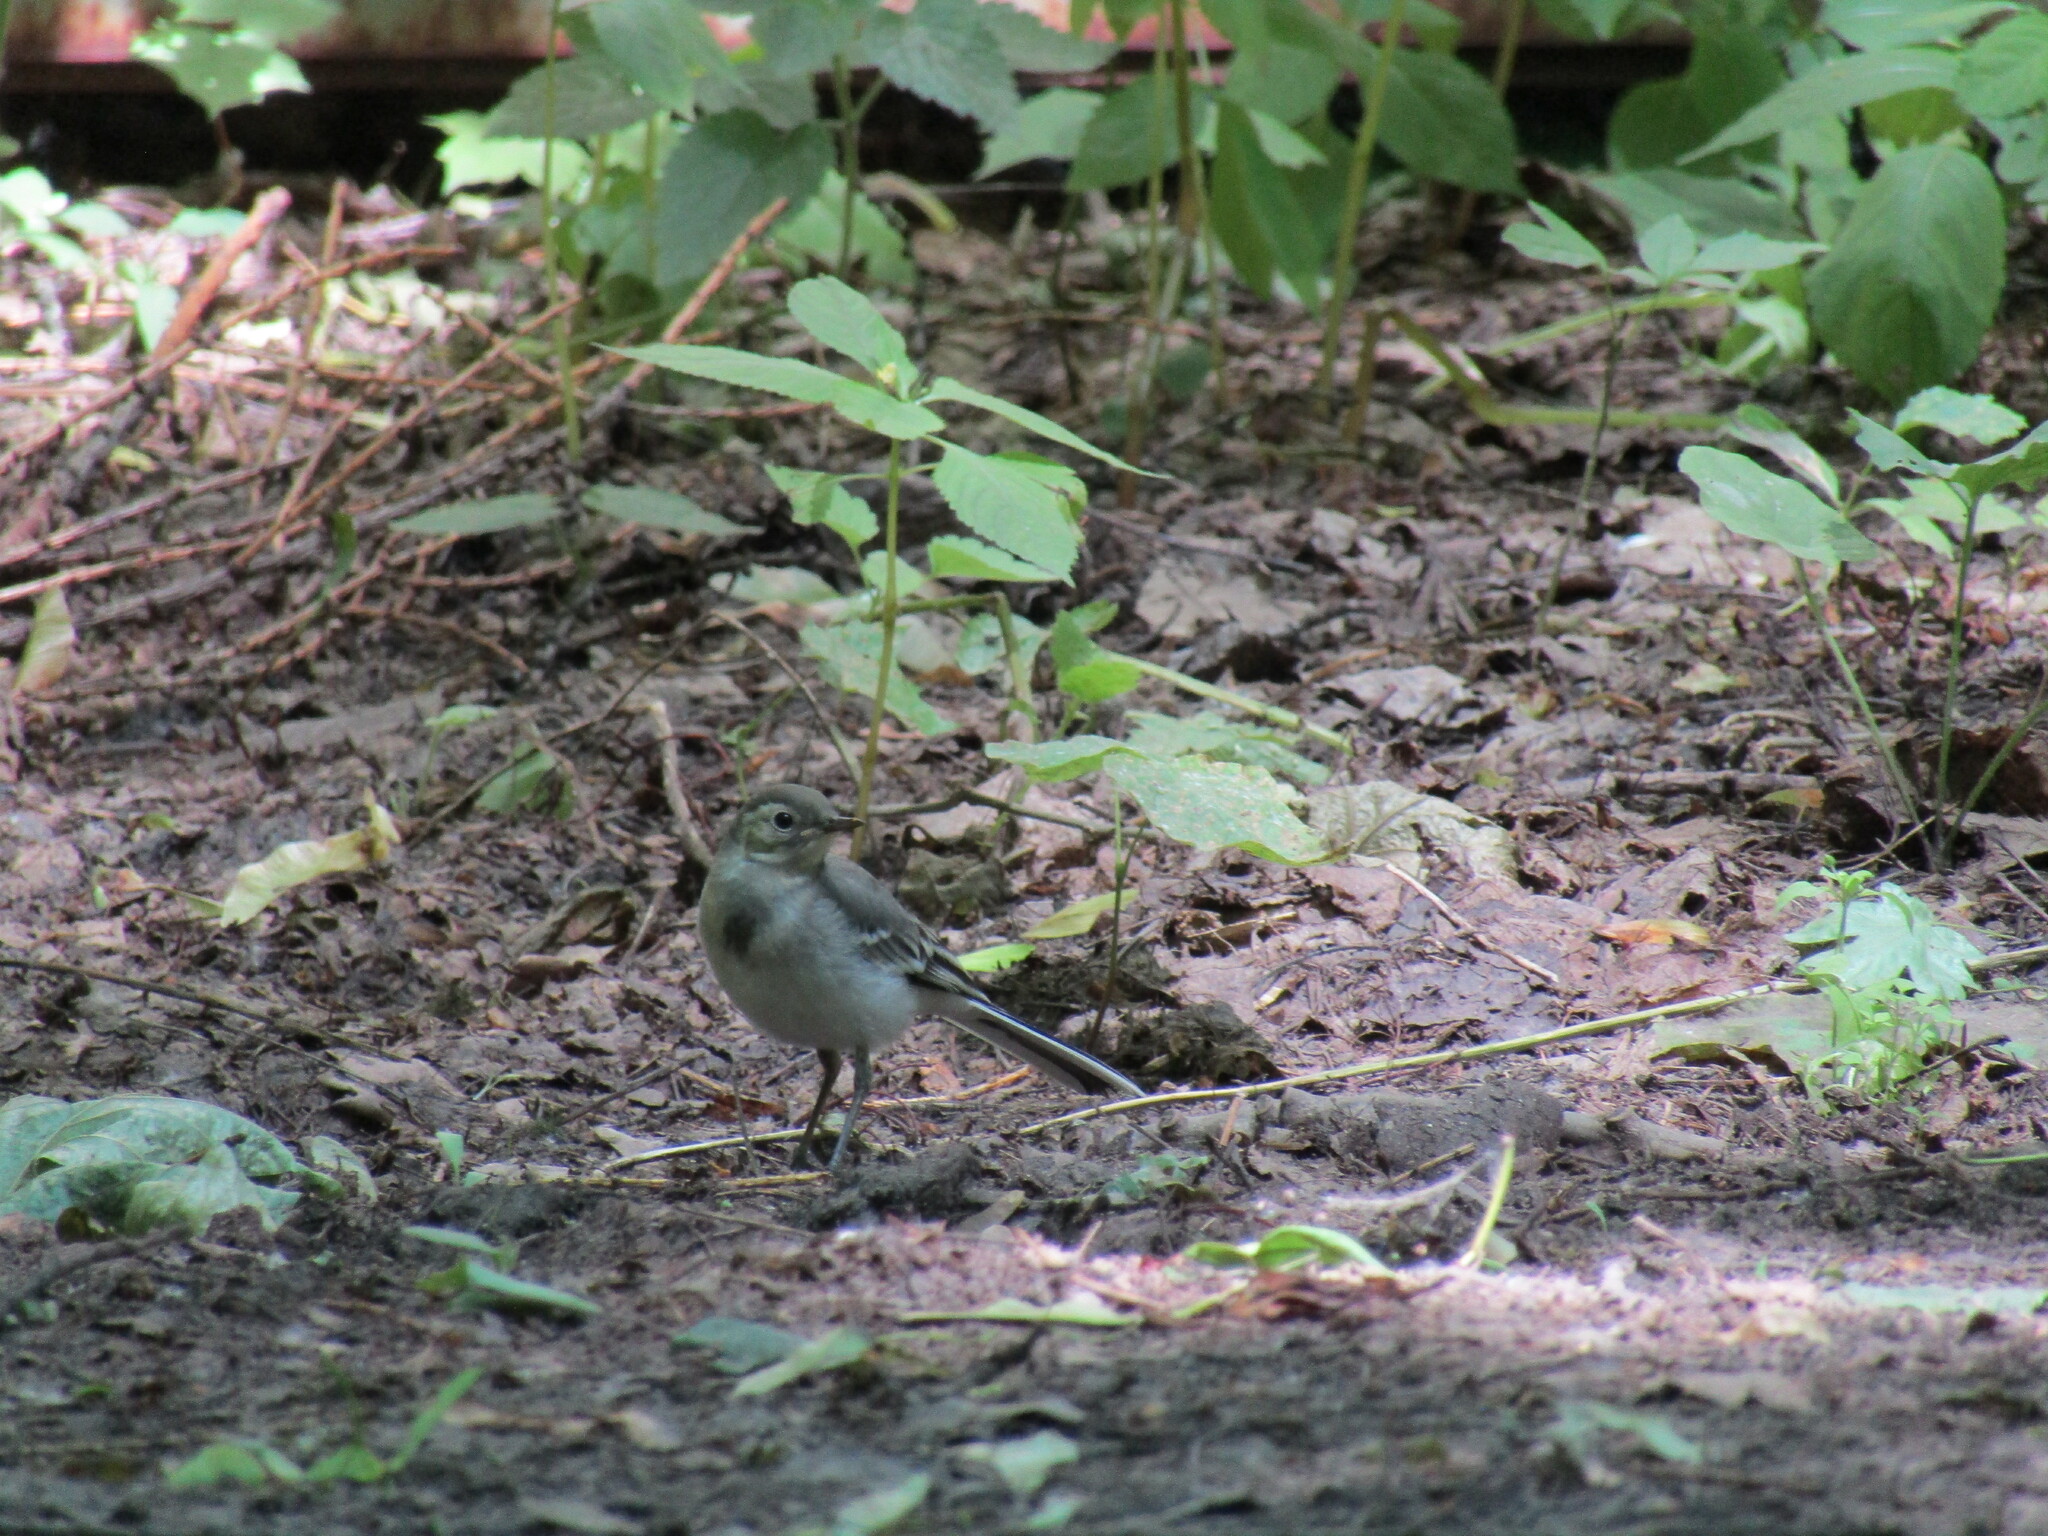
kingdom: Animalia
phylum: Chordata
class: Aves
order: Passeriformes
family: Motacillidae
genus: Motacilla
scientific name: Motacilla alba
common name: White wagtail
